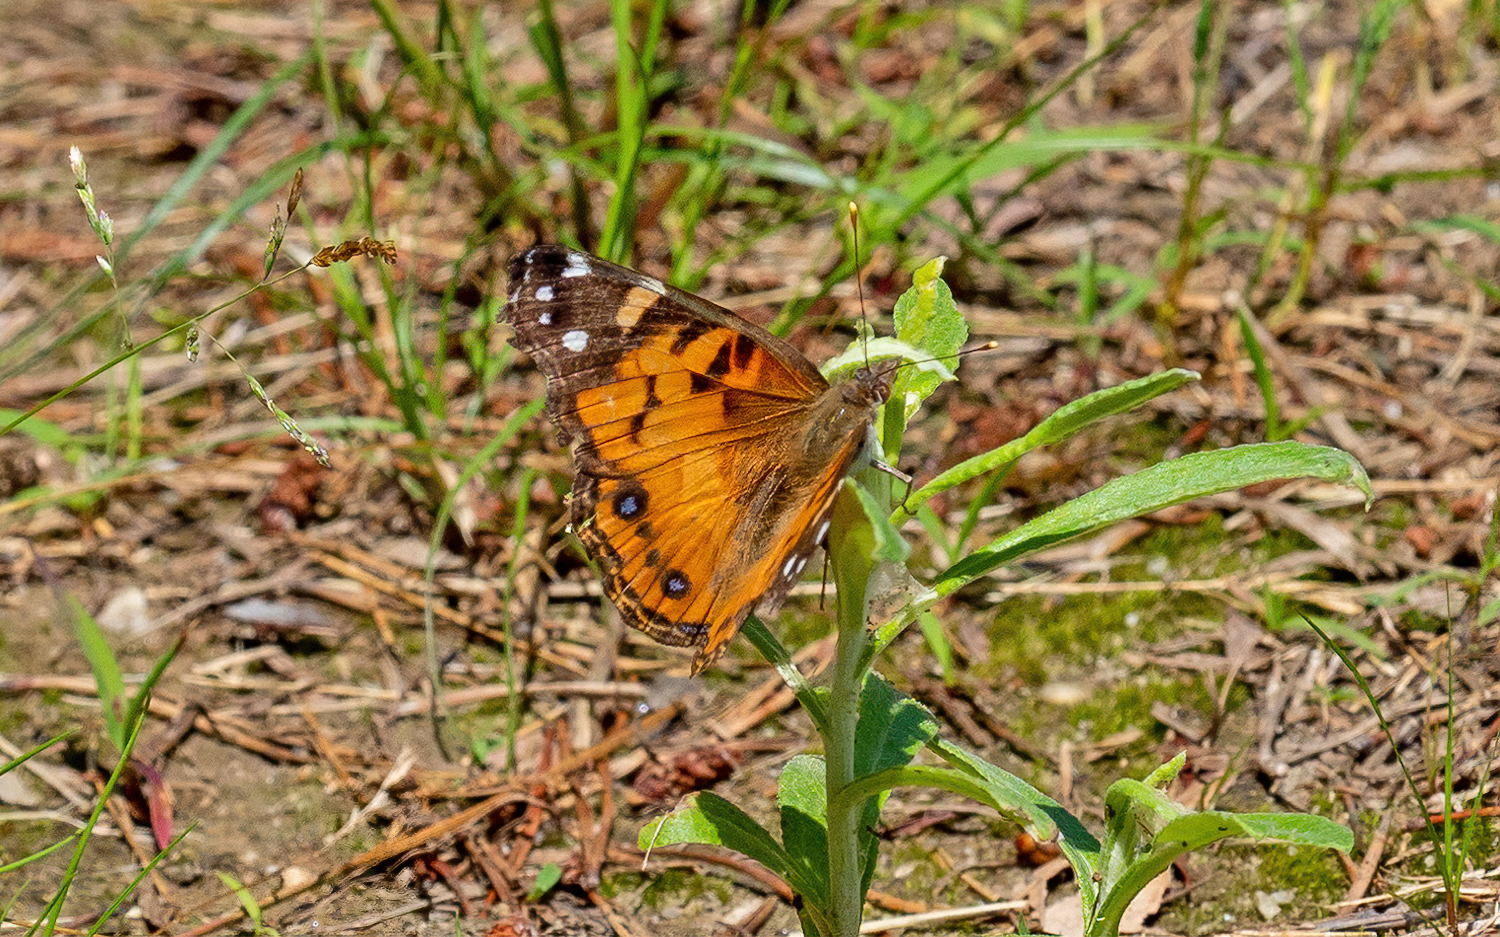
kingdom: Animalia
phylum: Arthropoda
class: Insecta
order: Lepidoptera
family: Nymphalidae
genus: Vanessa
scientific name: Vanessa virginiensis
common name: American lady
